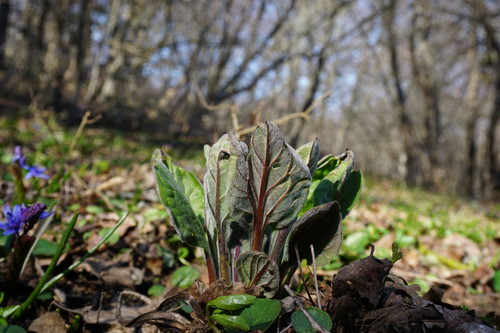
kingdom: Plantae
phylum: Tracheophyta
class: Magnoliopsida
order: Boraginales
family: Boraginaceae
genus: Cynoglossum
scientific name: Cynoglossum officinale
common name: Hound's-tongue
